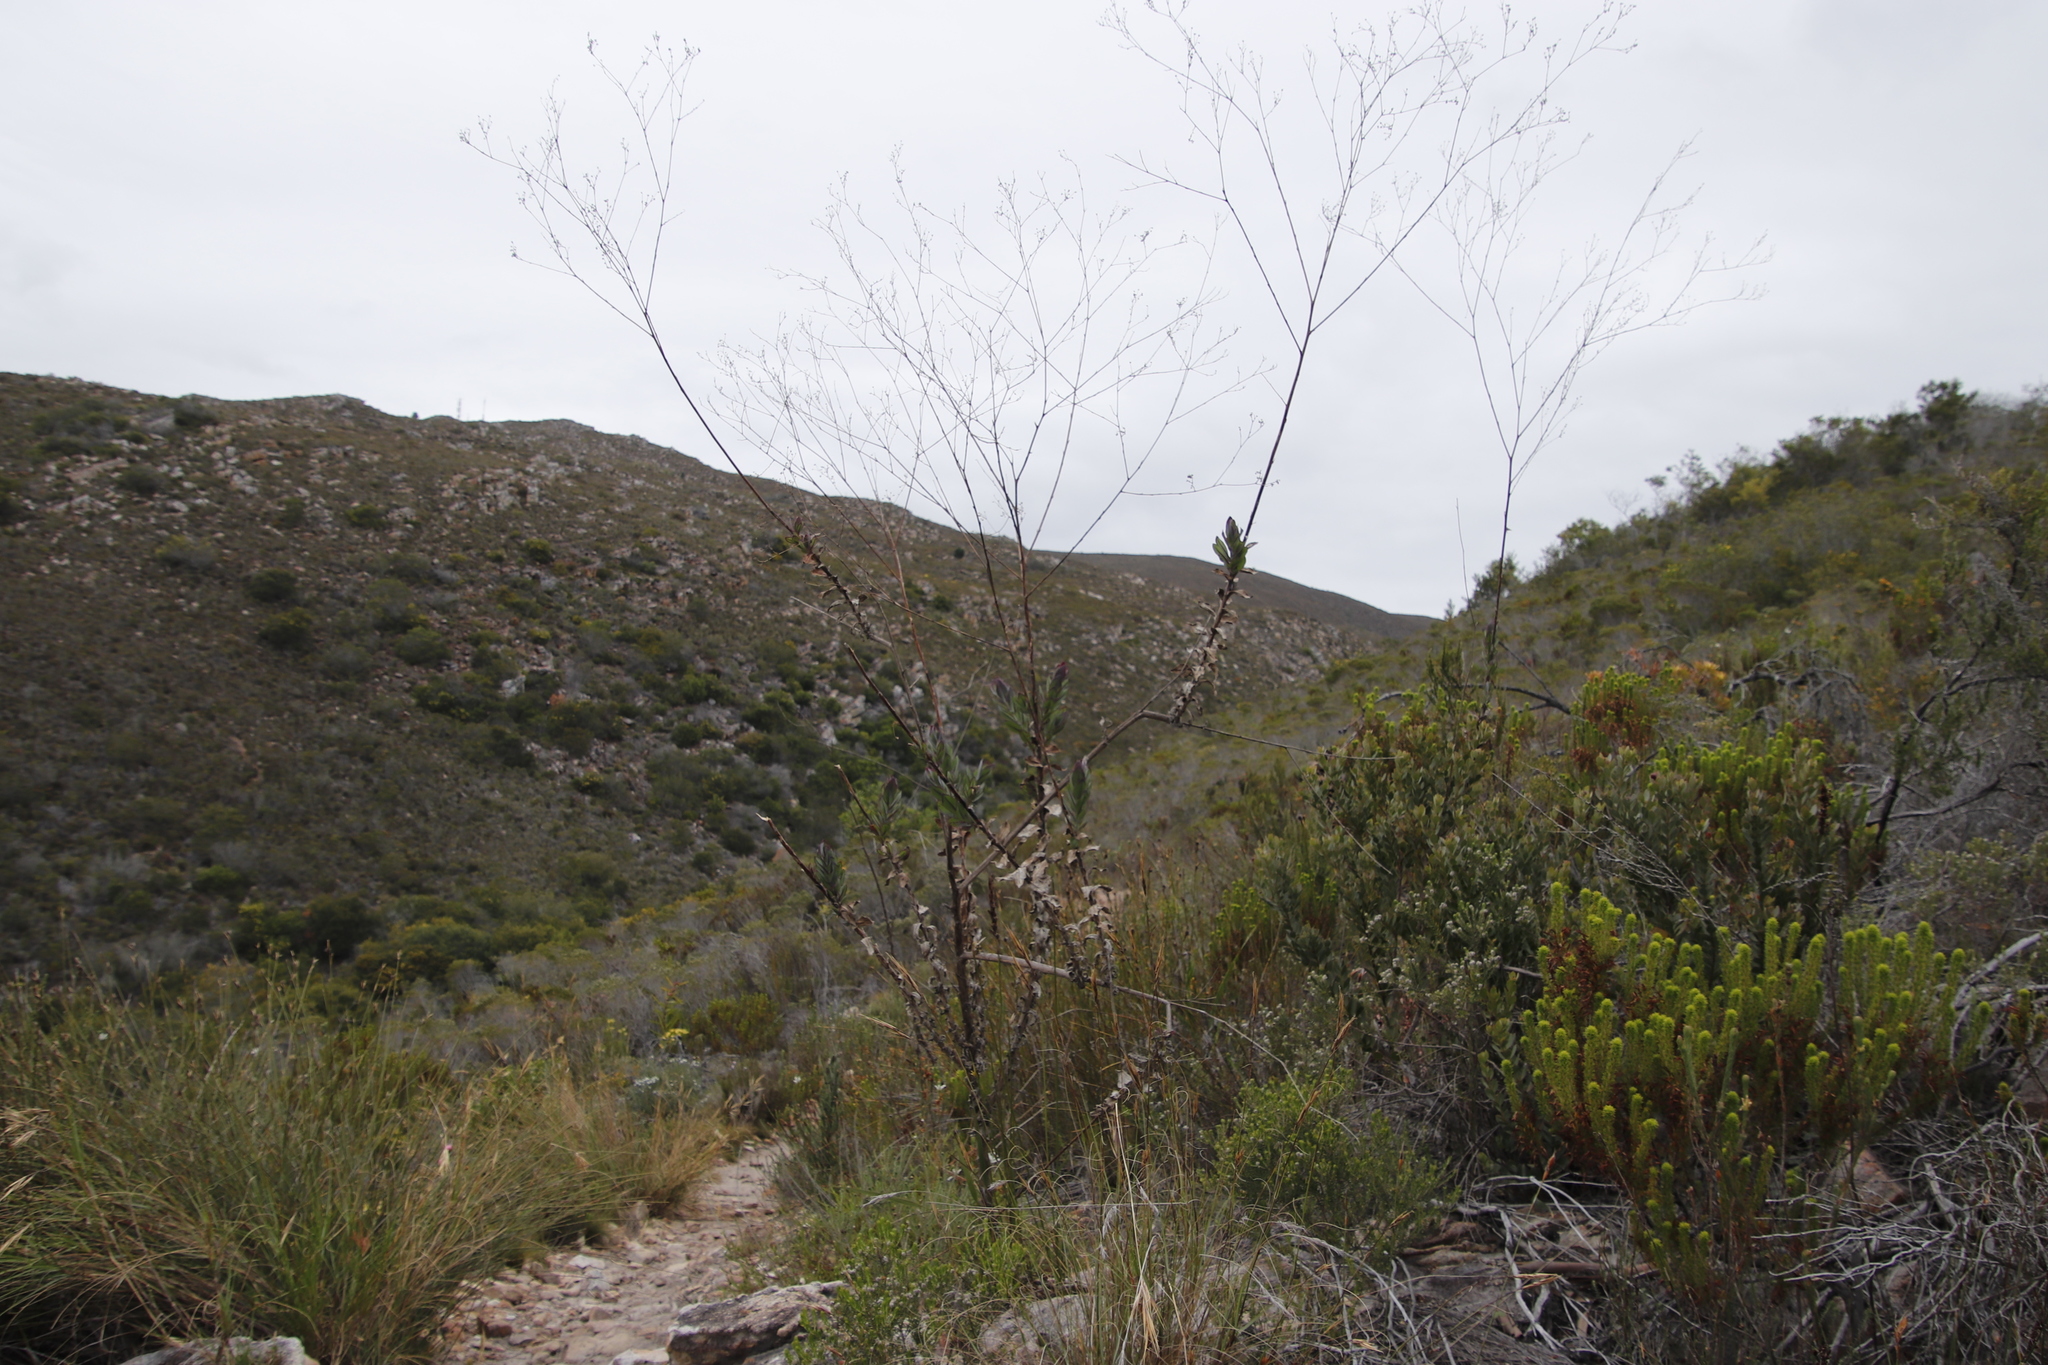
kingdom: Plantae
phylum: Tracheophyta
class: Magnoliopsida
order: Asterales
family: Asteraceae
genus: Othonna
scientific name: Othonna quinquedentata
